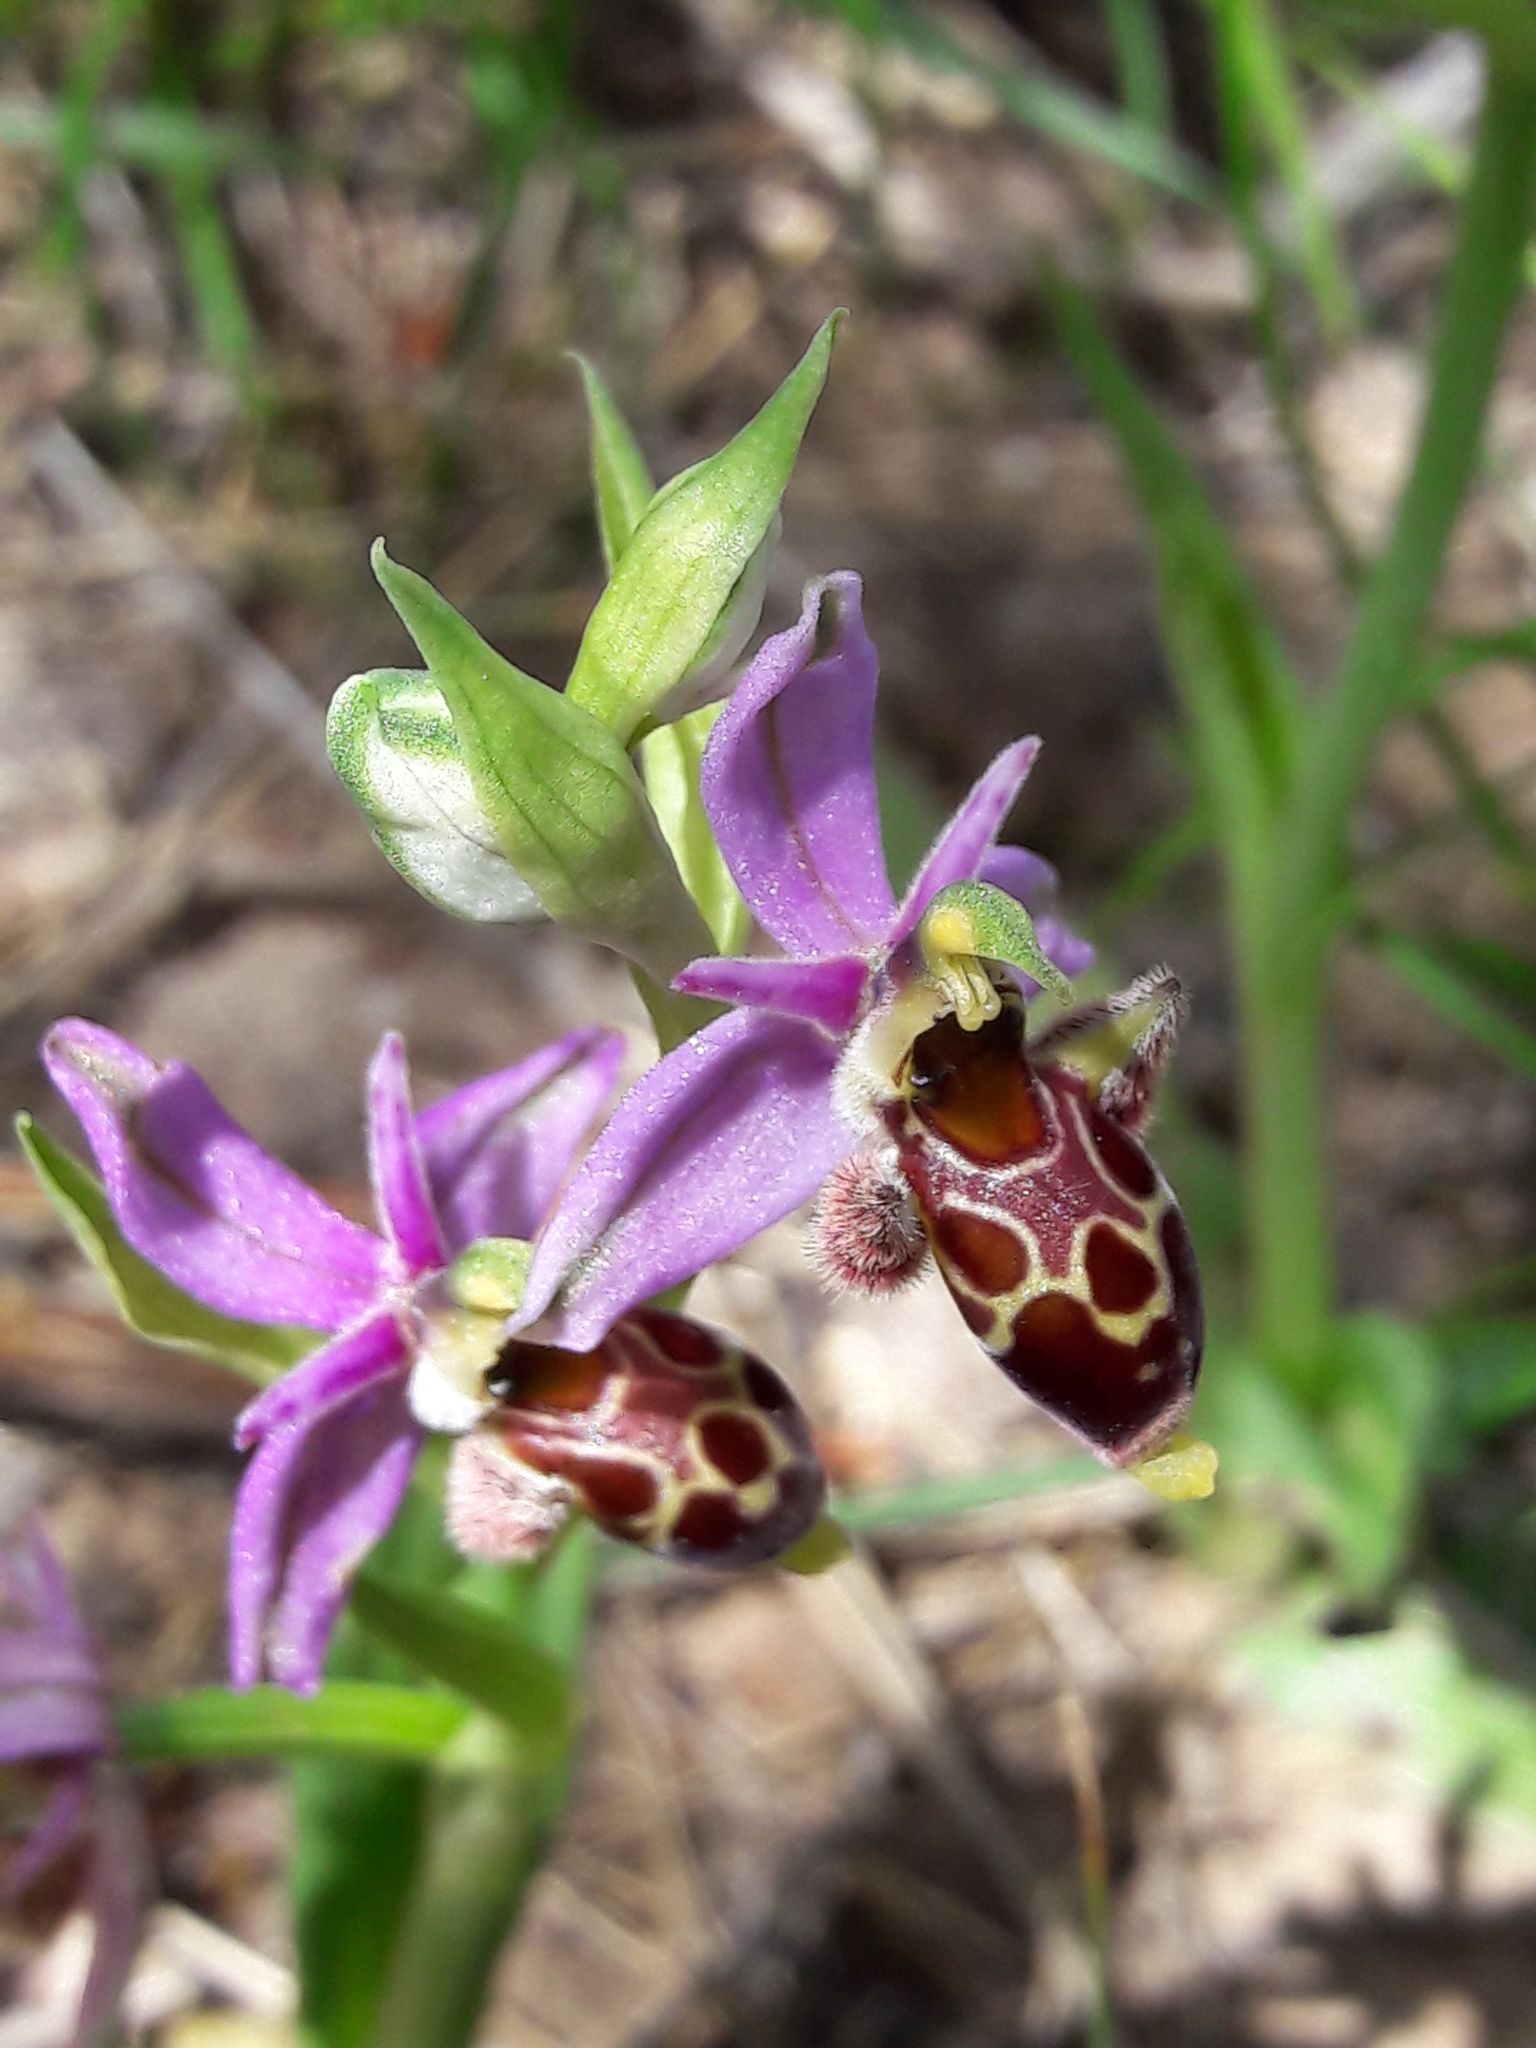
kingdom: Plantae
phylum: Tracheophyta
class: Liliopsida
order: Asparagales
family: Orchidaceae
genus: Ophrys
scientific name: Ophrys scolopax
